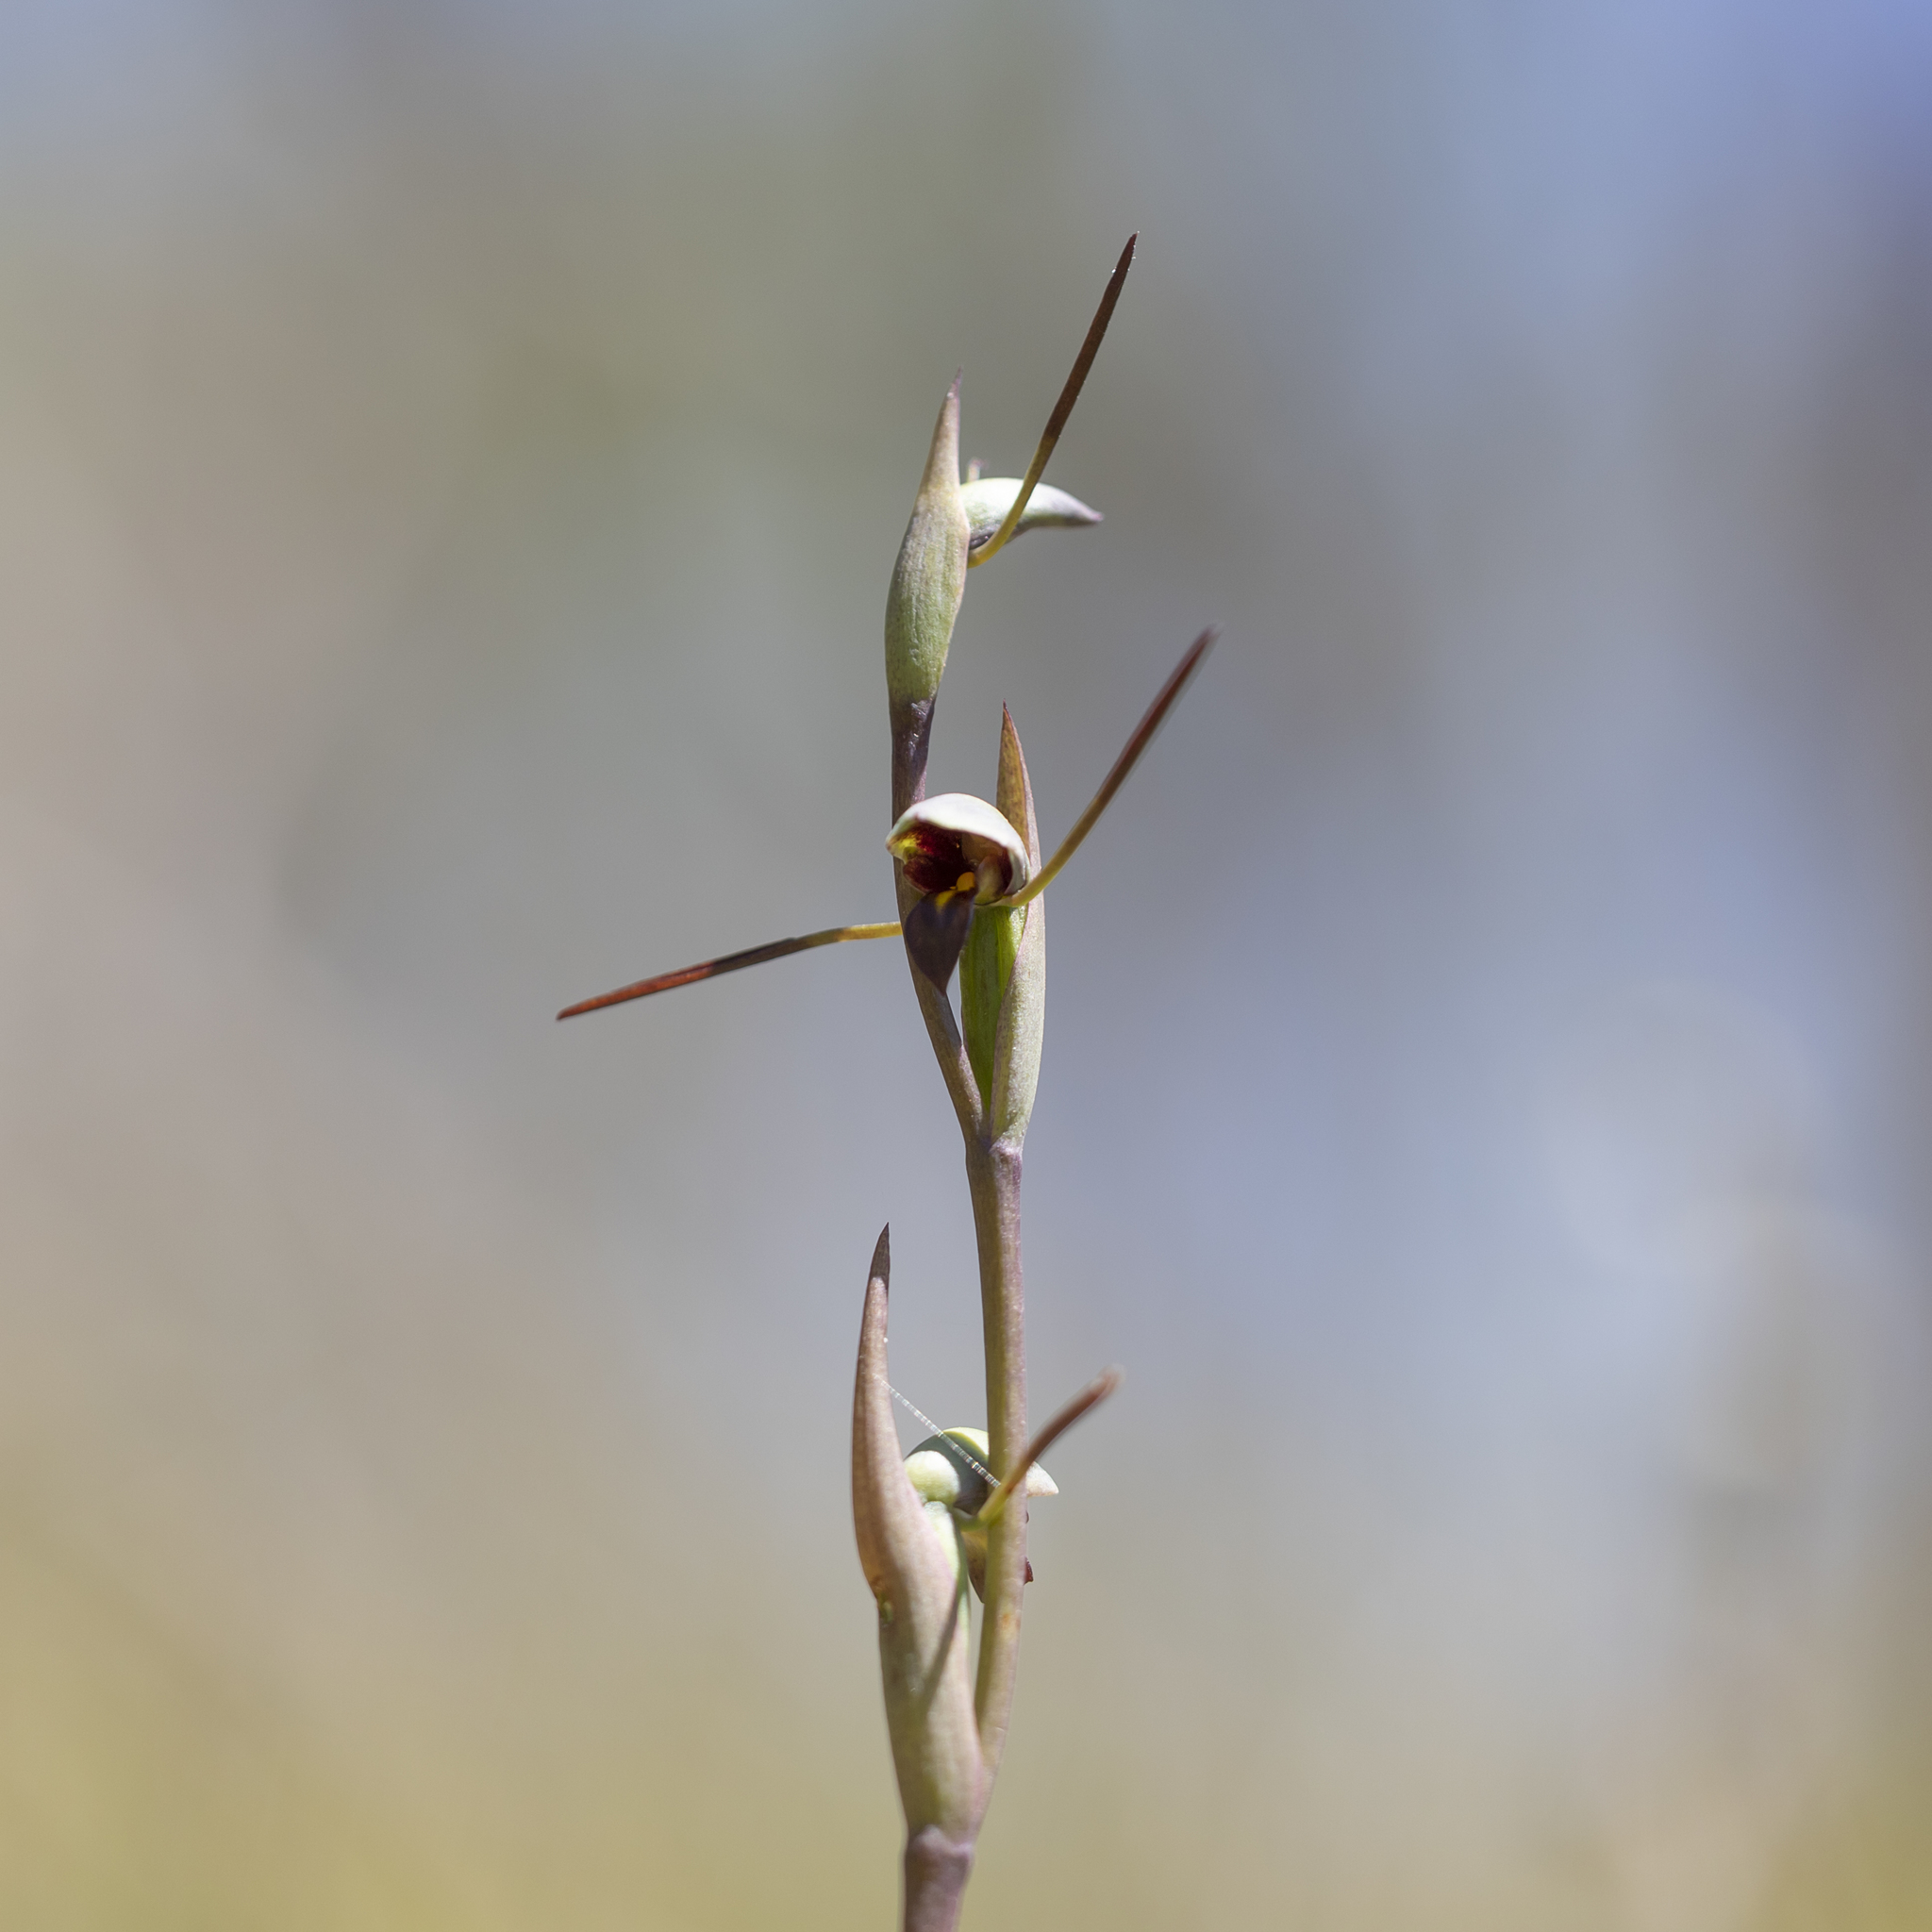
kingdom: Plantae
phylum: Tracheophyta
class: Liliopsida
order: Asparagales
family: Orchidaceae
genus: Orthoceras
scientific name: Orthoceras strictum
